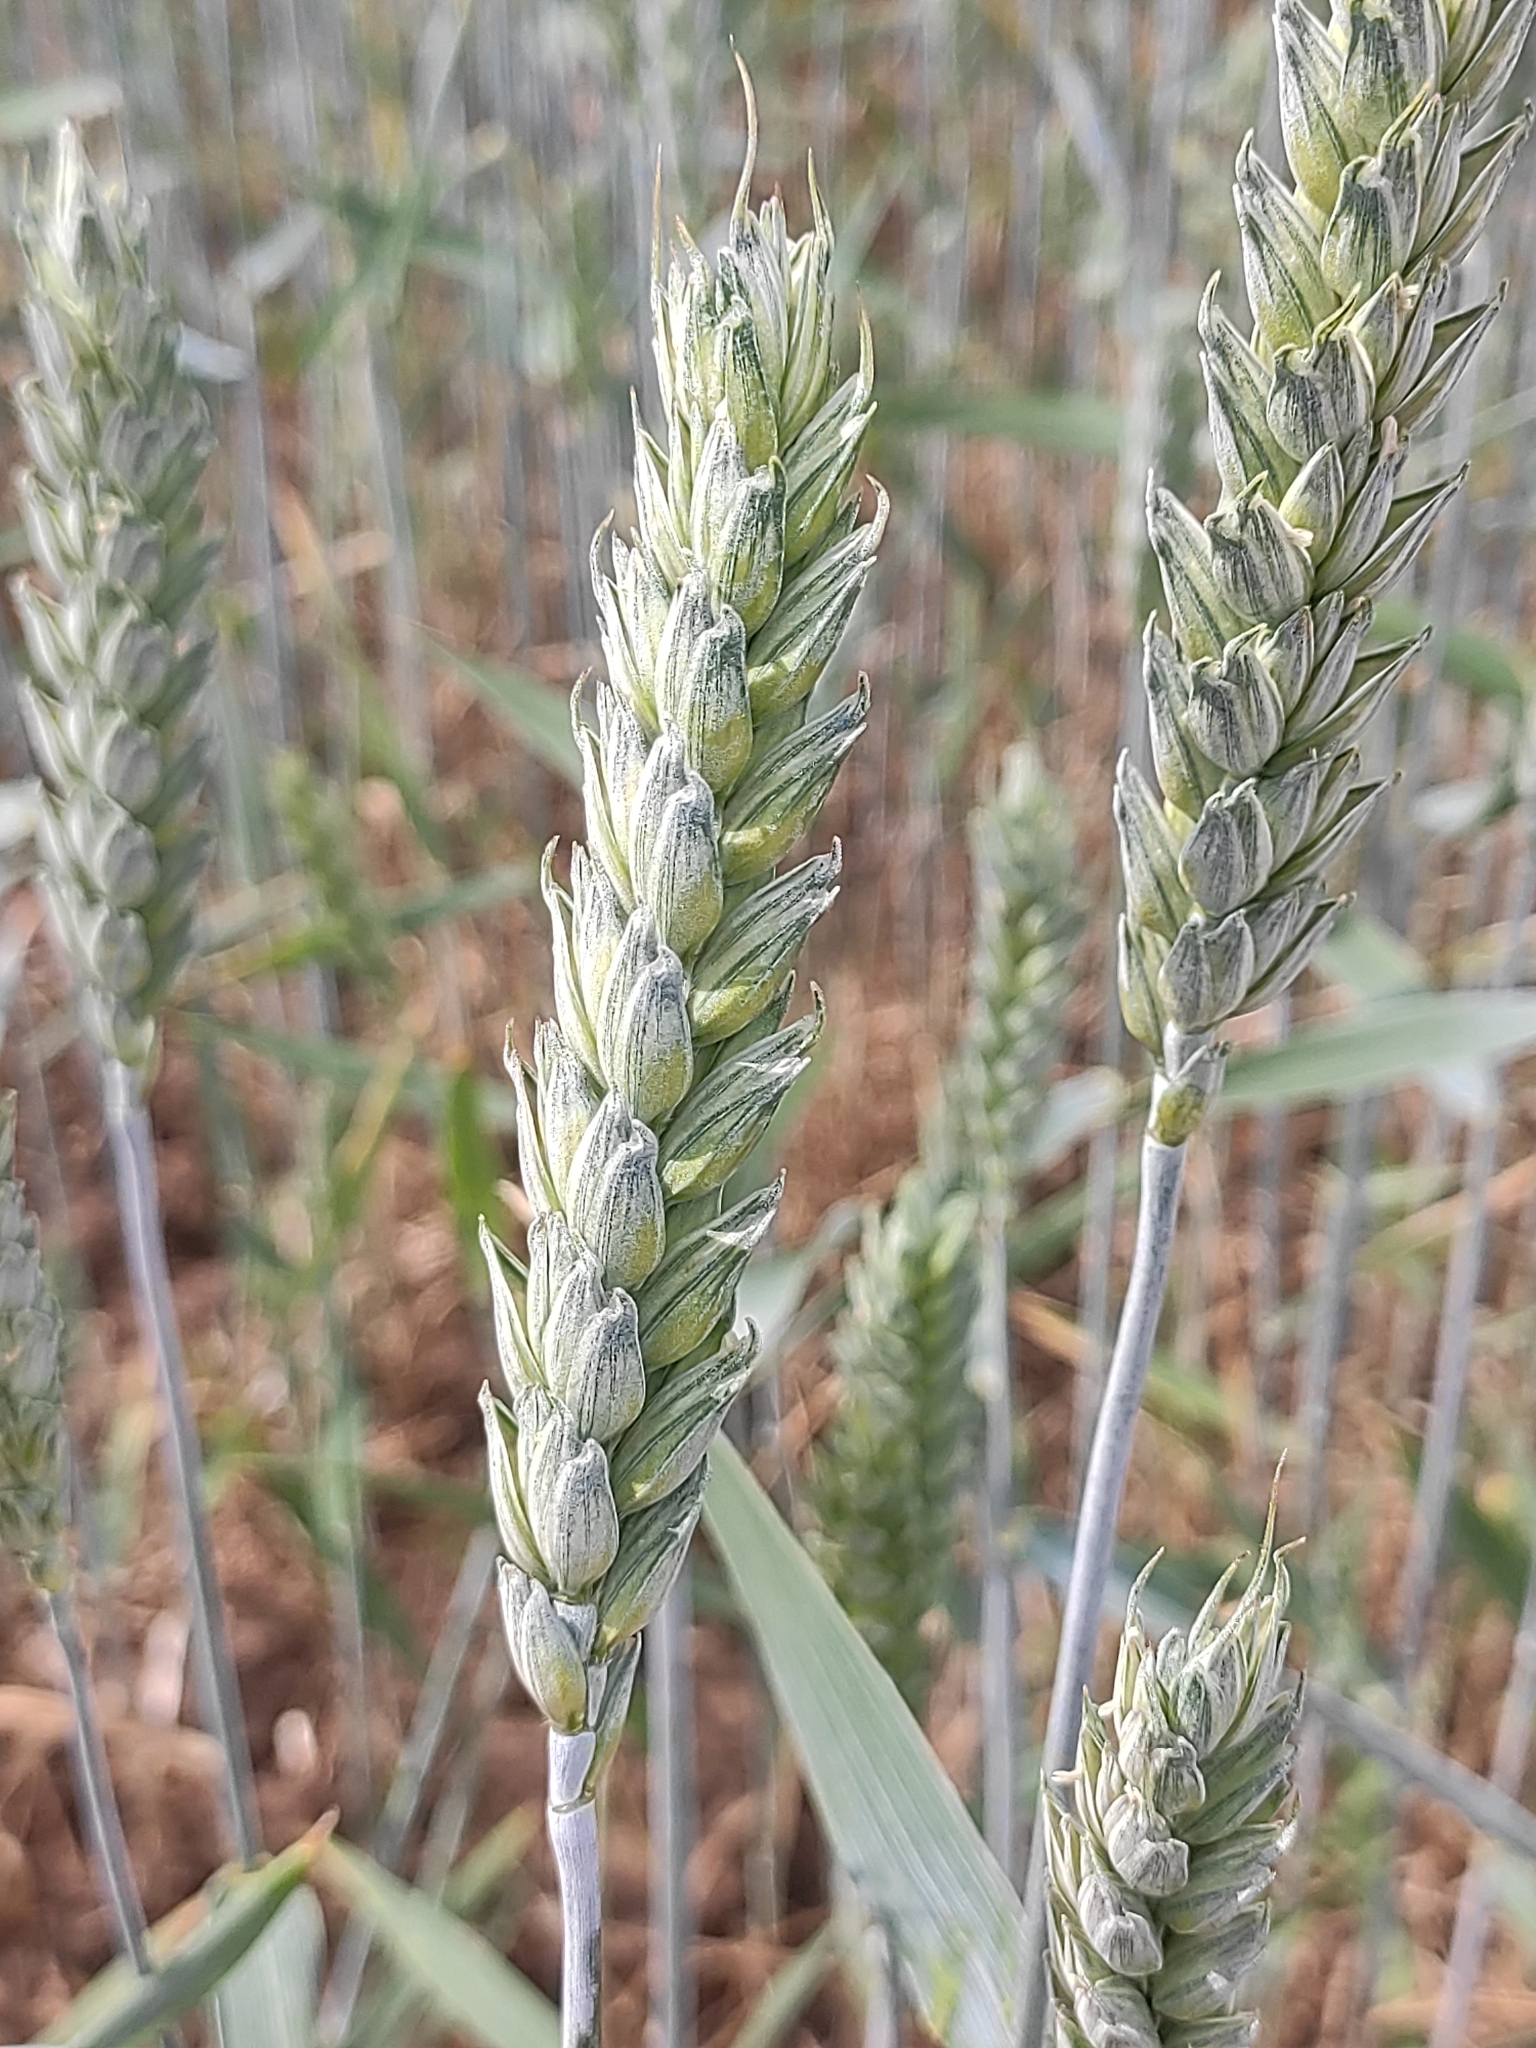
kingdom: Plantae
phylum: Tracheophyta
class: Liliopsida
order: Poales
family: Poaceae
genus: Triticum
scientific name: Triticum aestivum
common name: Common wheat
